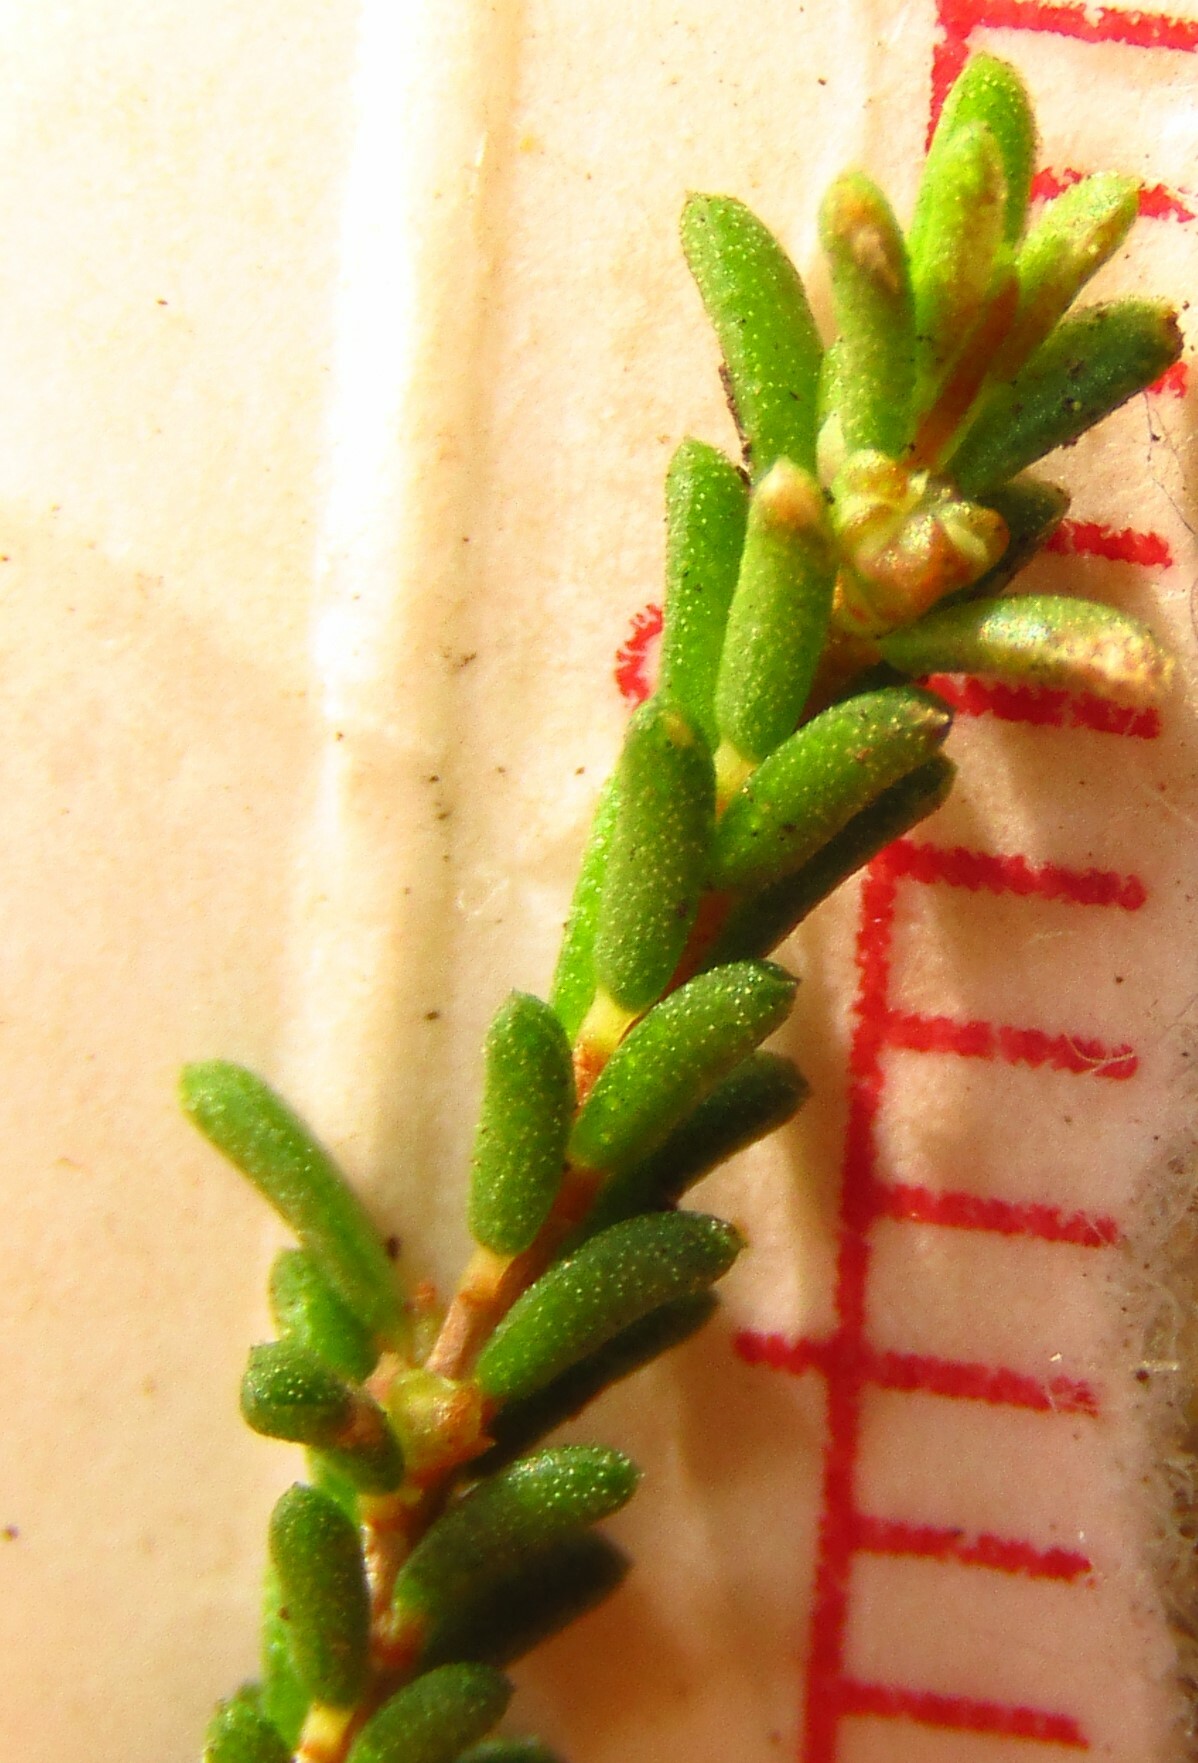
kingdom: Plantae
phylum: Tracheophyta
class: Magnoliopsida
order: Myrtales
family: Myrtaceae
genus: Ochrosperma
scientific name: Ochrosperma citriodorum
